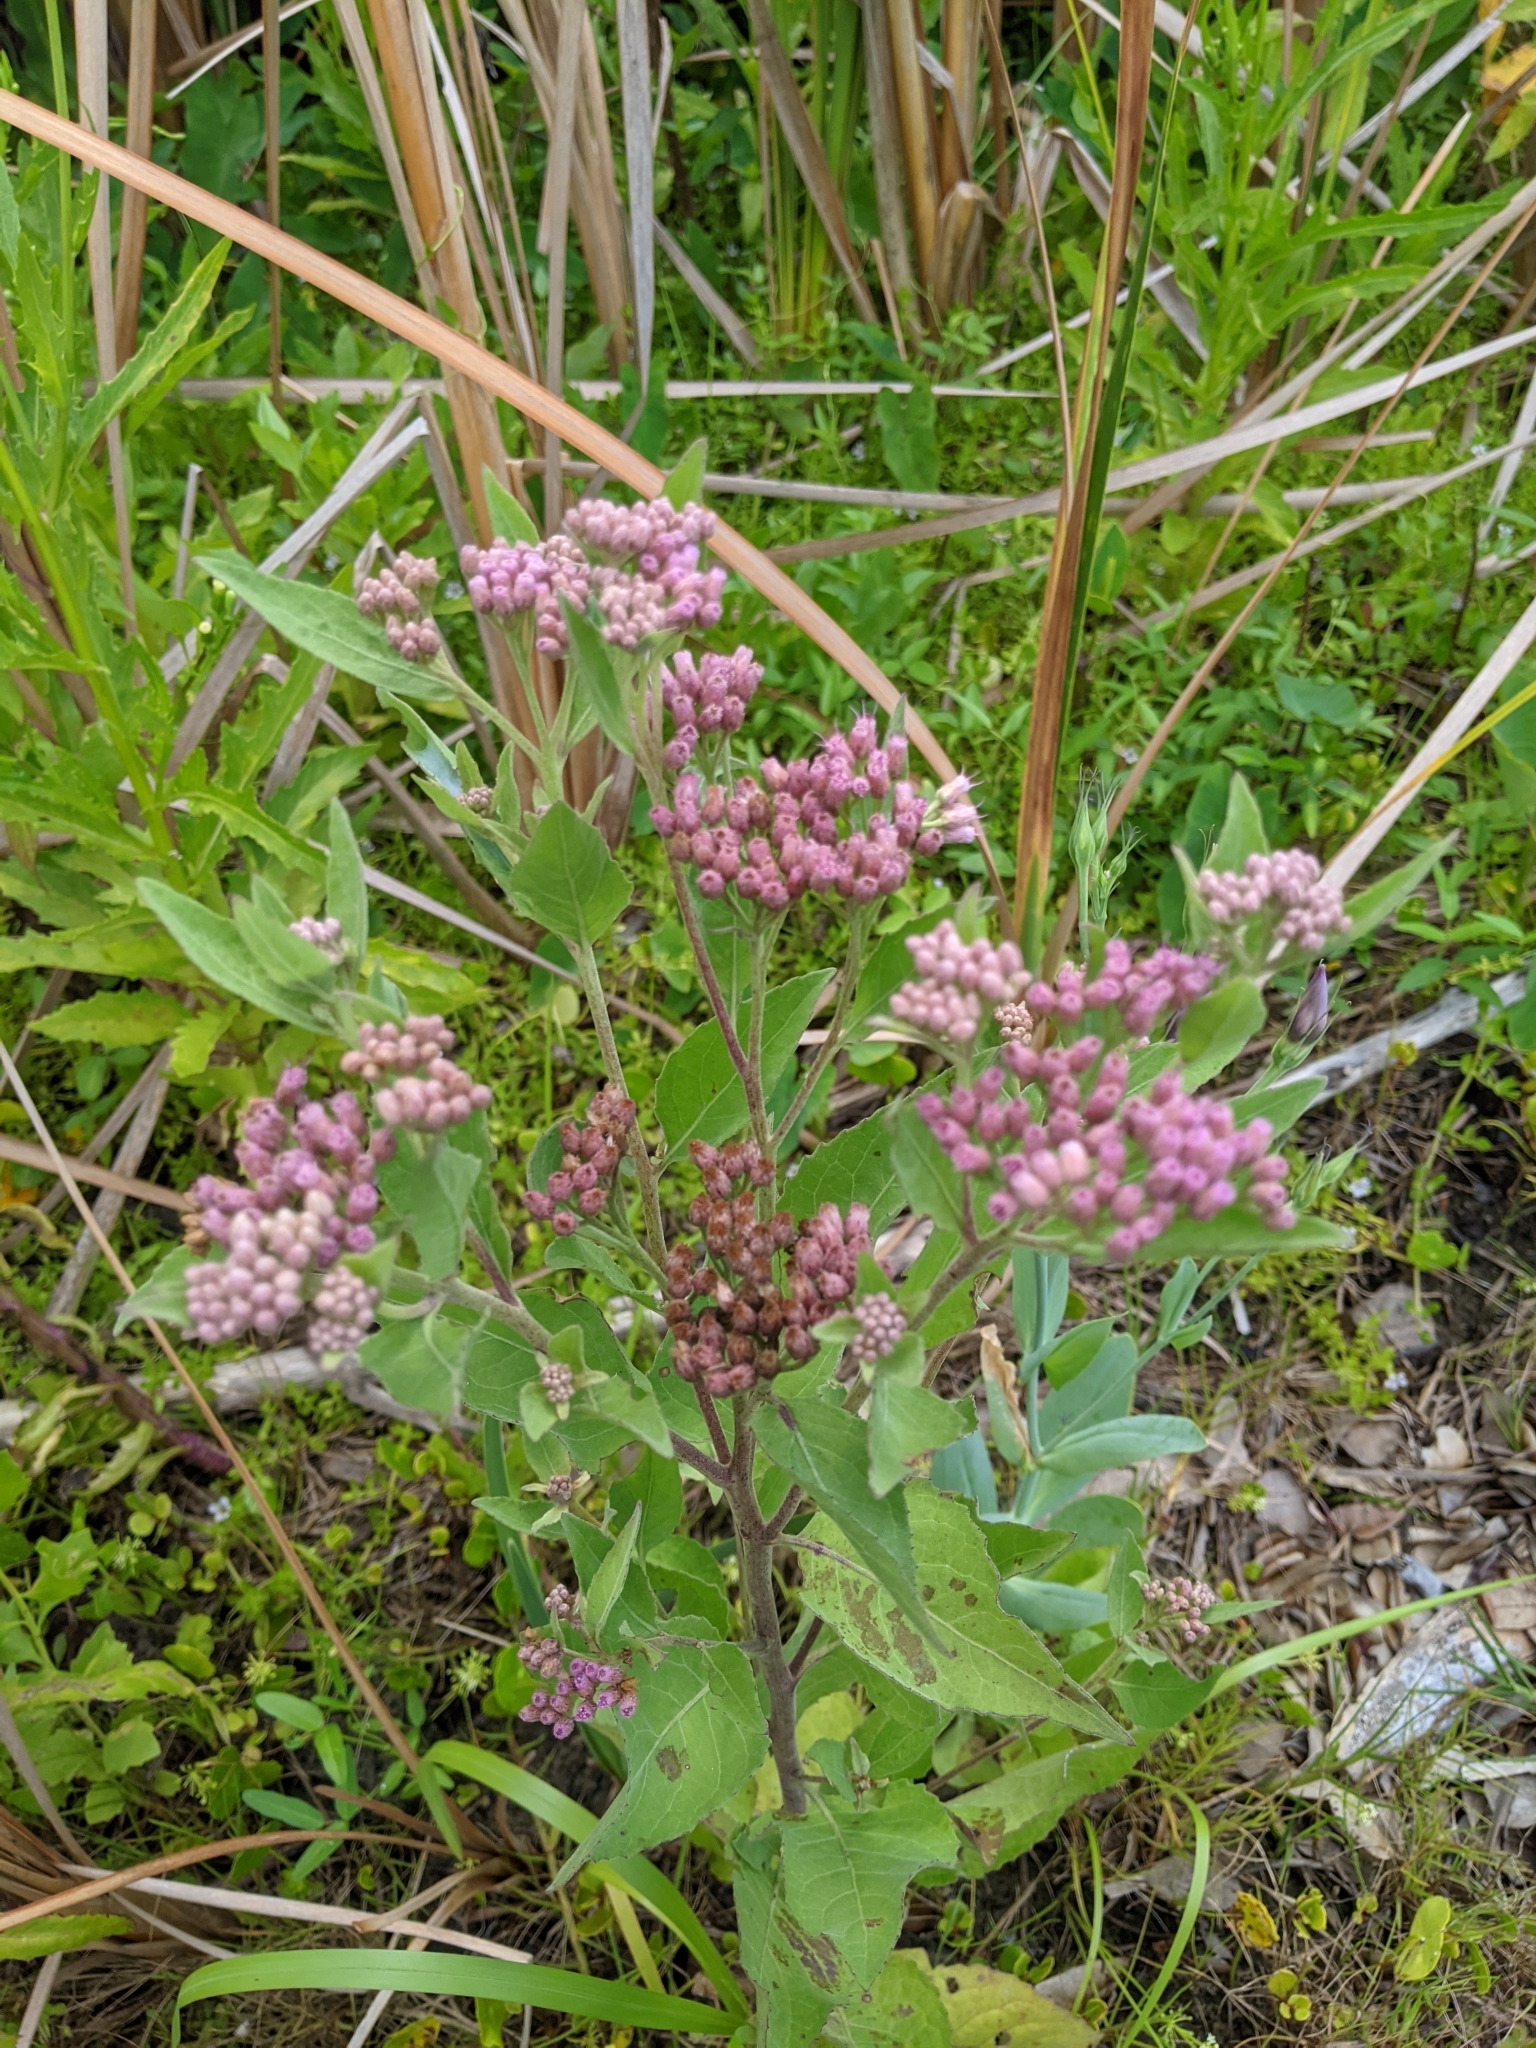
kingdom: Plantae
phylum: Tracheophyta
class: Magnoliopsida
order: Asterales
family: Asteraceae
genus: Pluchea
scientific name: Pluchea odorata
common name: Saltmarsh fleabane
